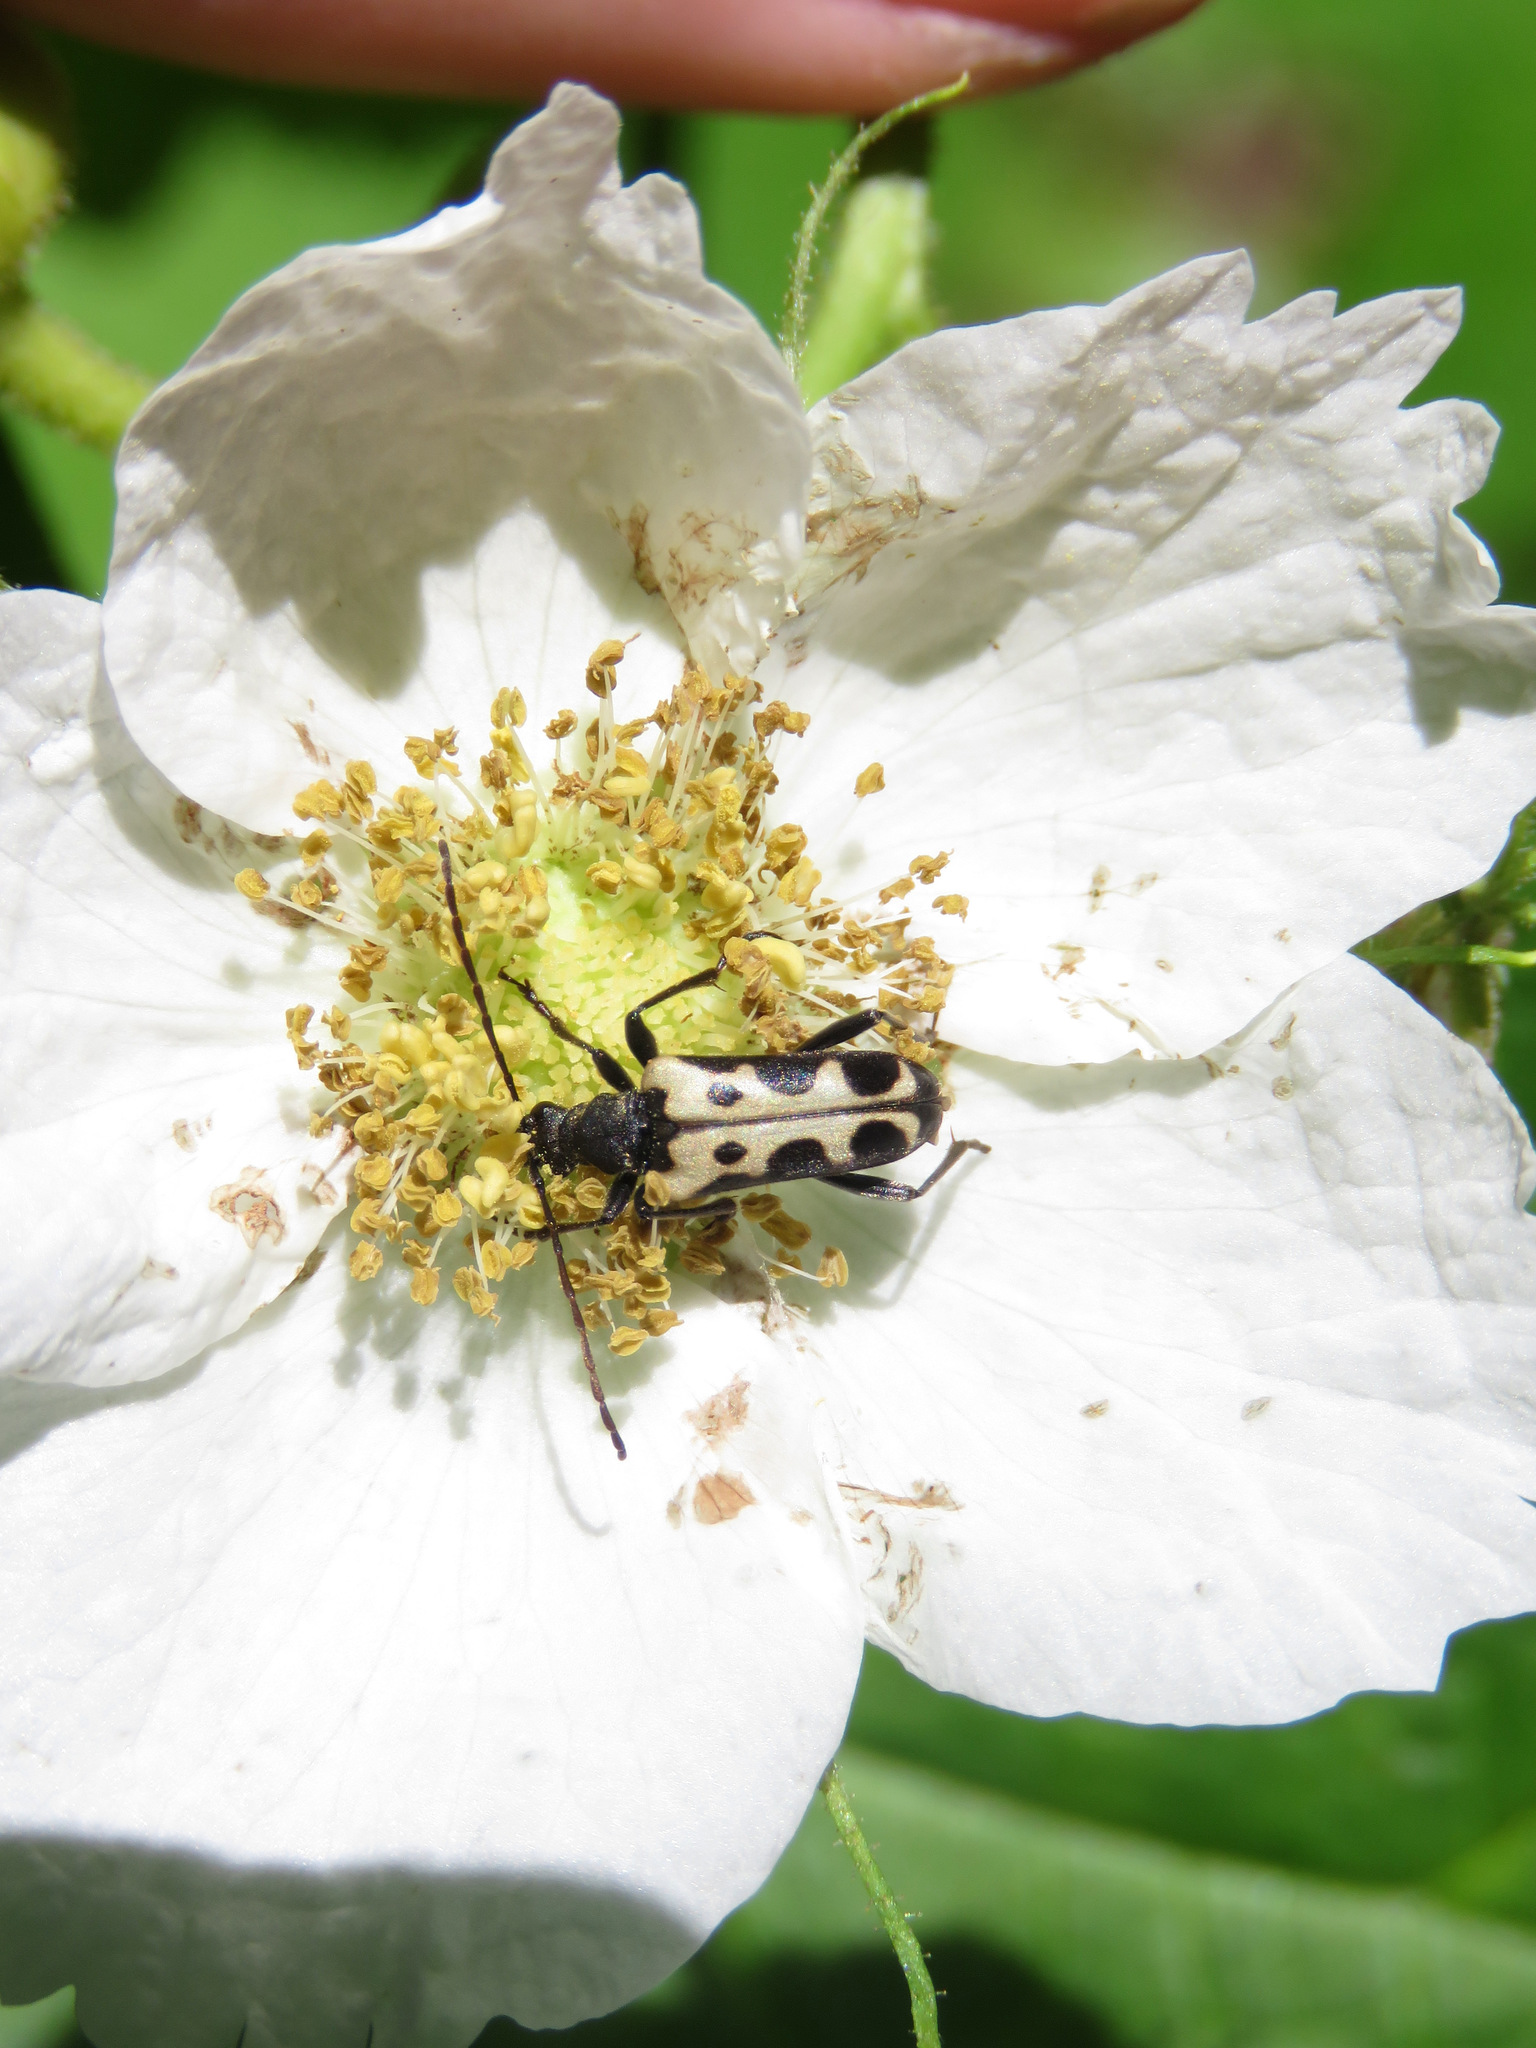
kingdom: Animalia
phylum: Arthropoda
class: Insecta
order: Coleoptera
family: Cerambycidae
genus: Evodinus
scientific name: Evodinus monticola
